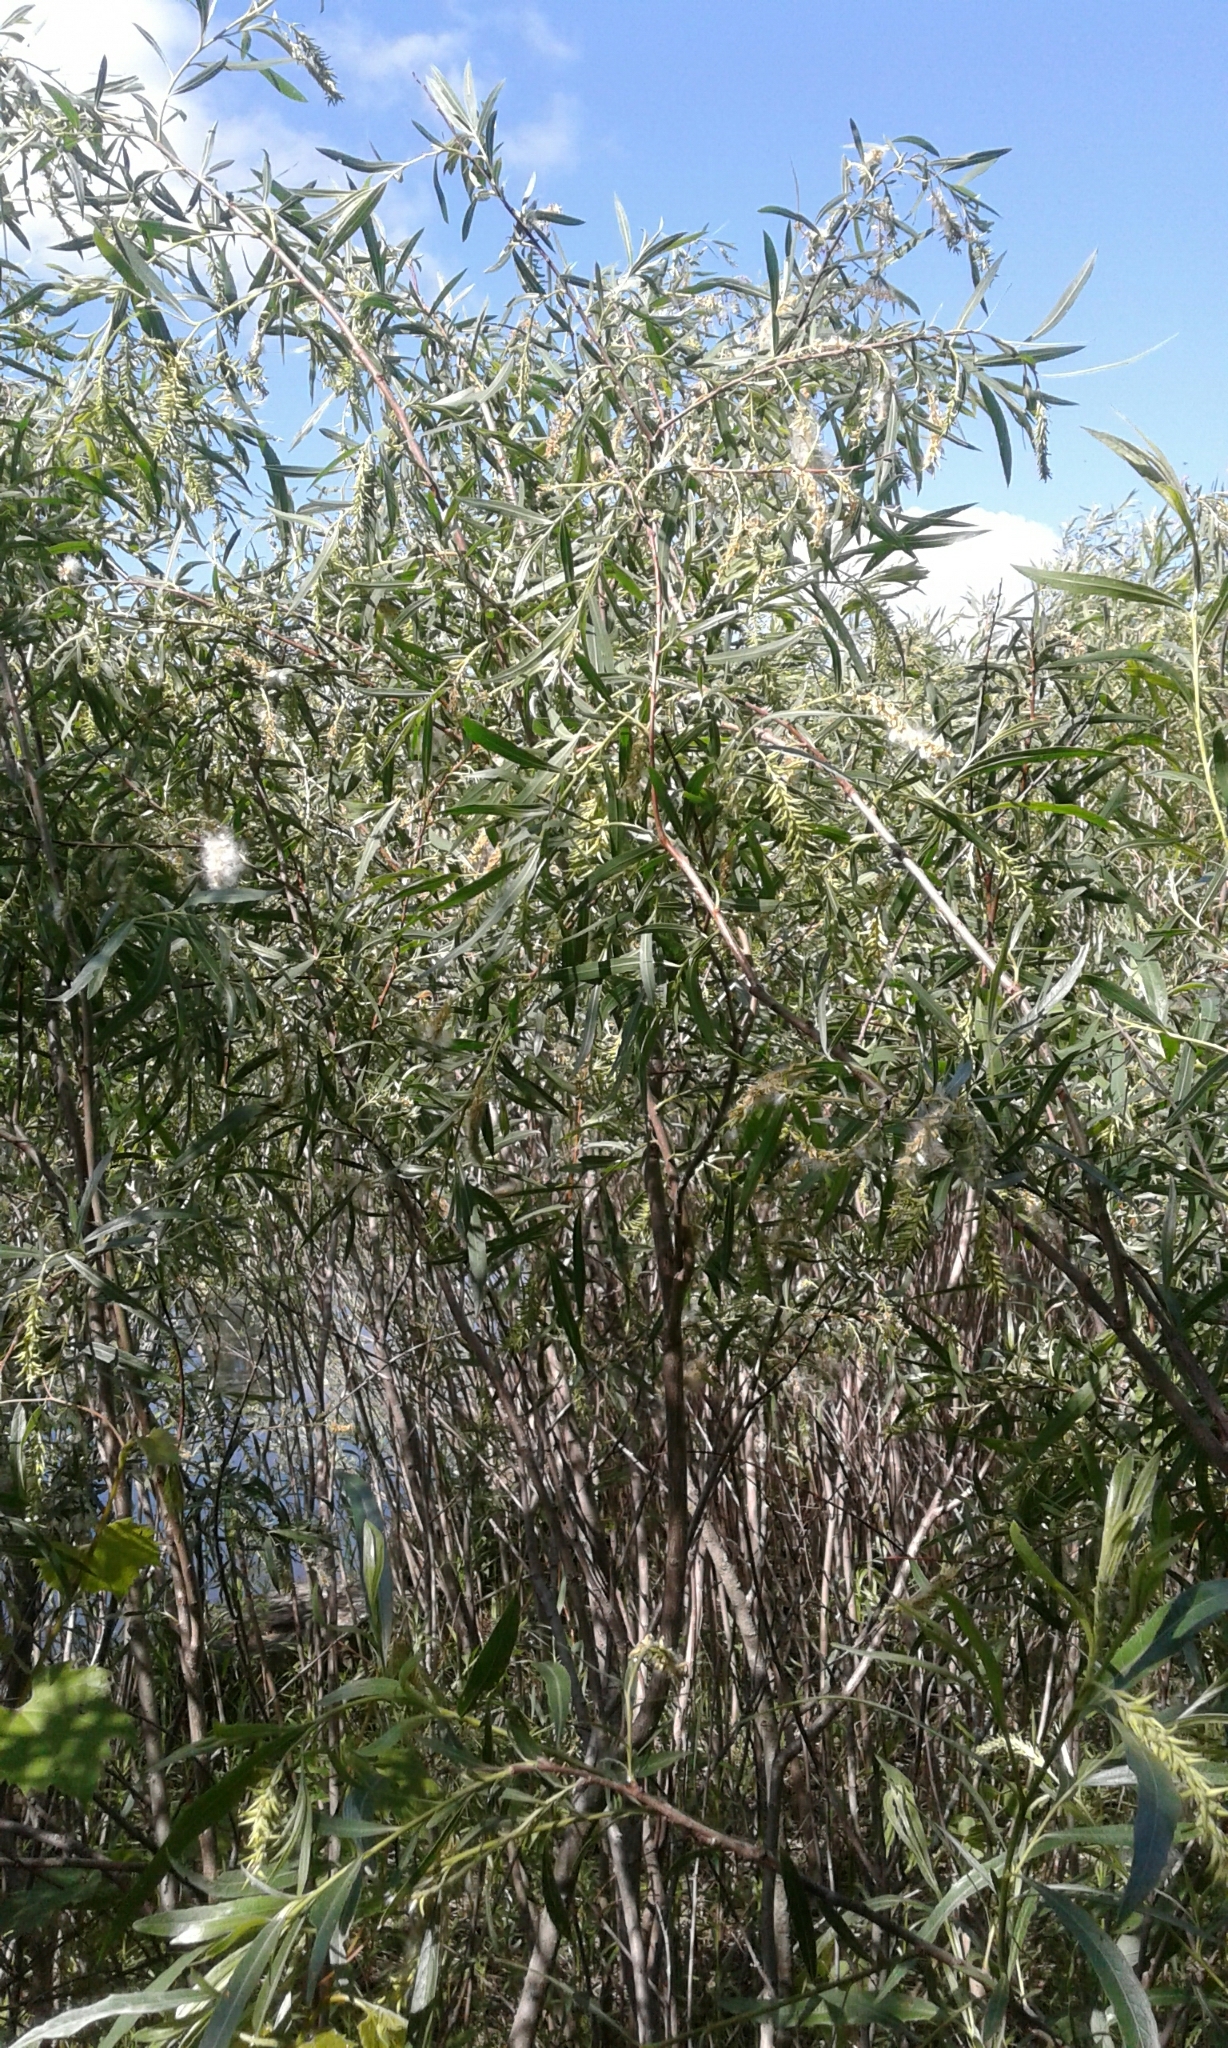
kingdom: Plantae
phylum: Tracheophyta
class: Magnoliopsida
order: Malpighiales
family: Salicaceae
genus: Salix
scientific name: Salix interior
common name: Sandbar willow
